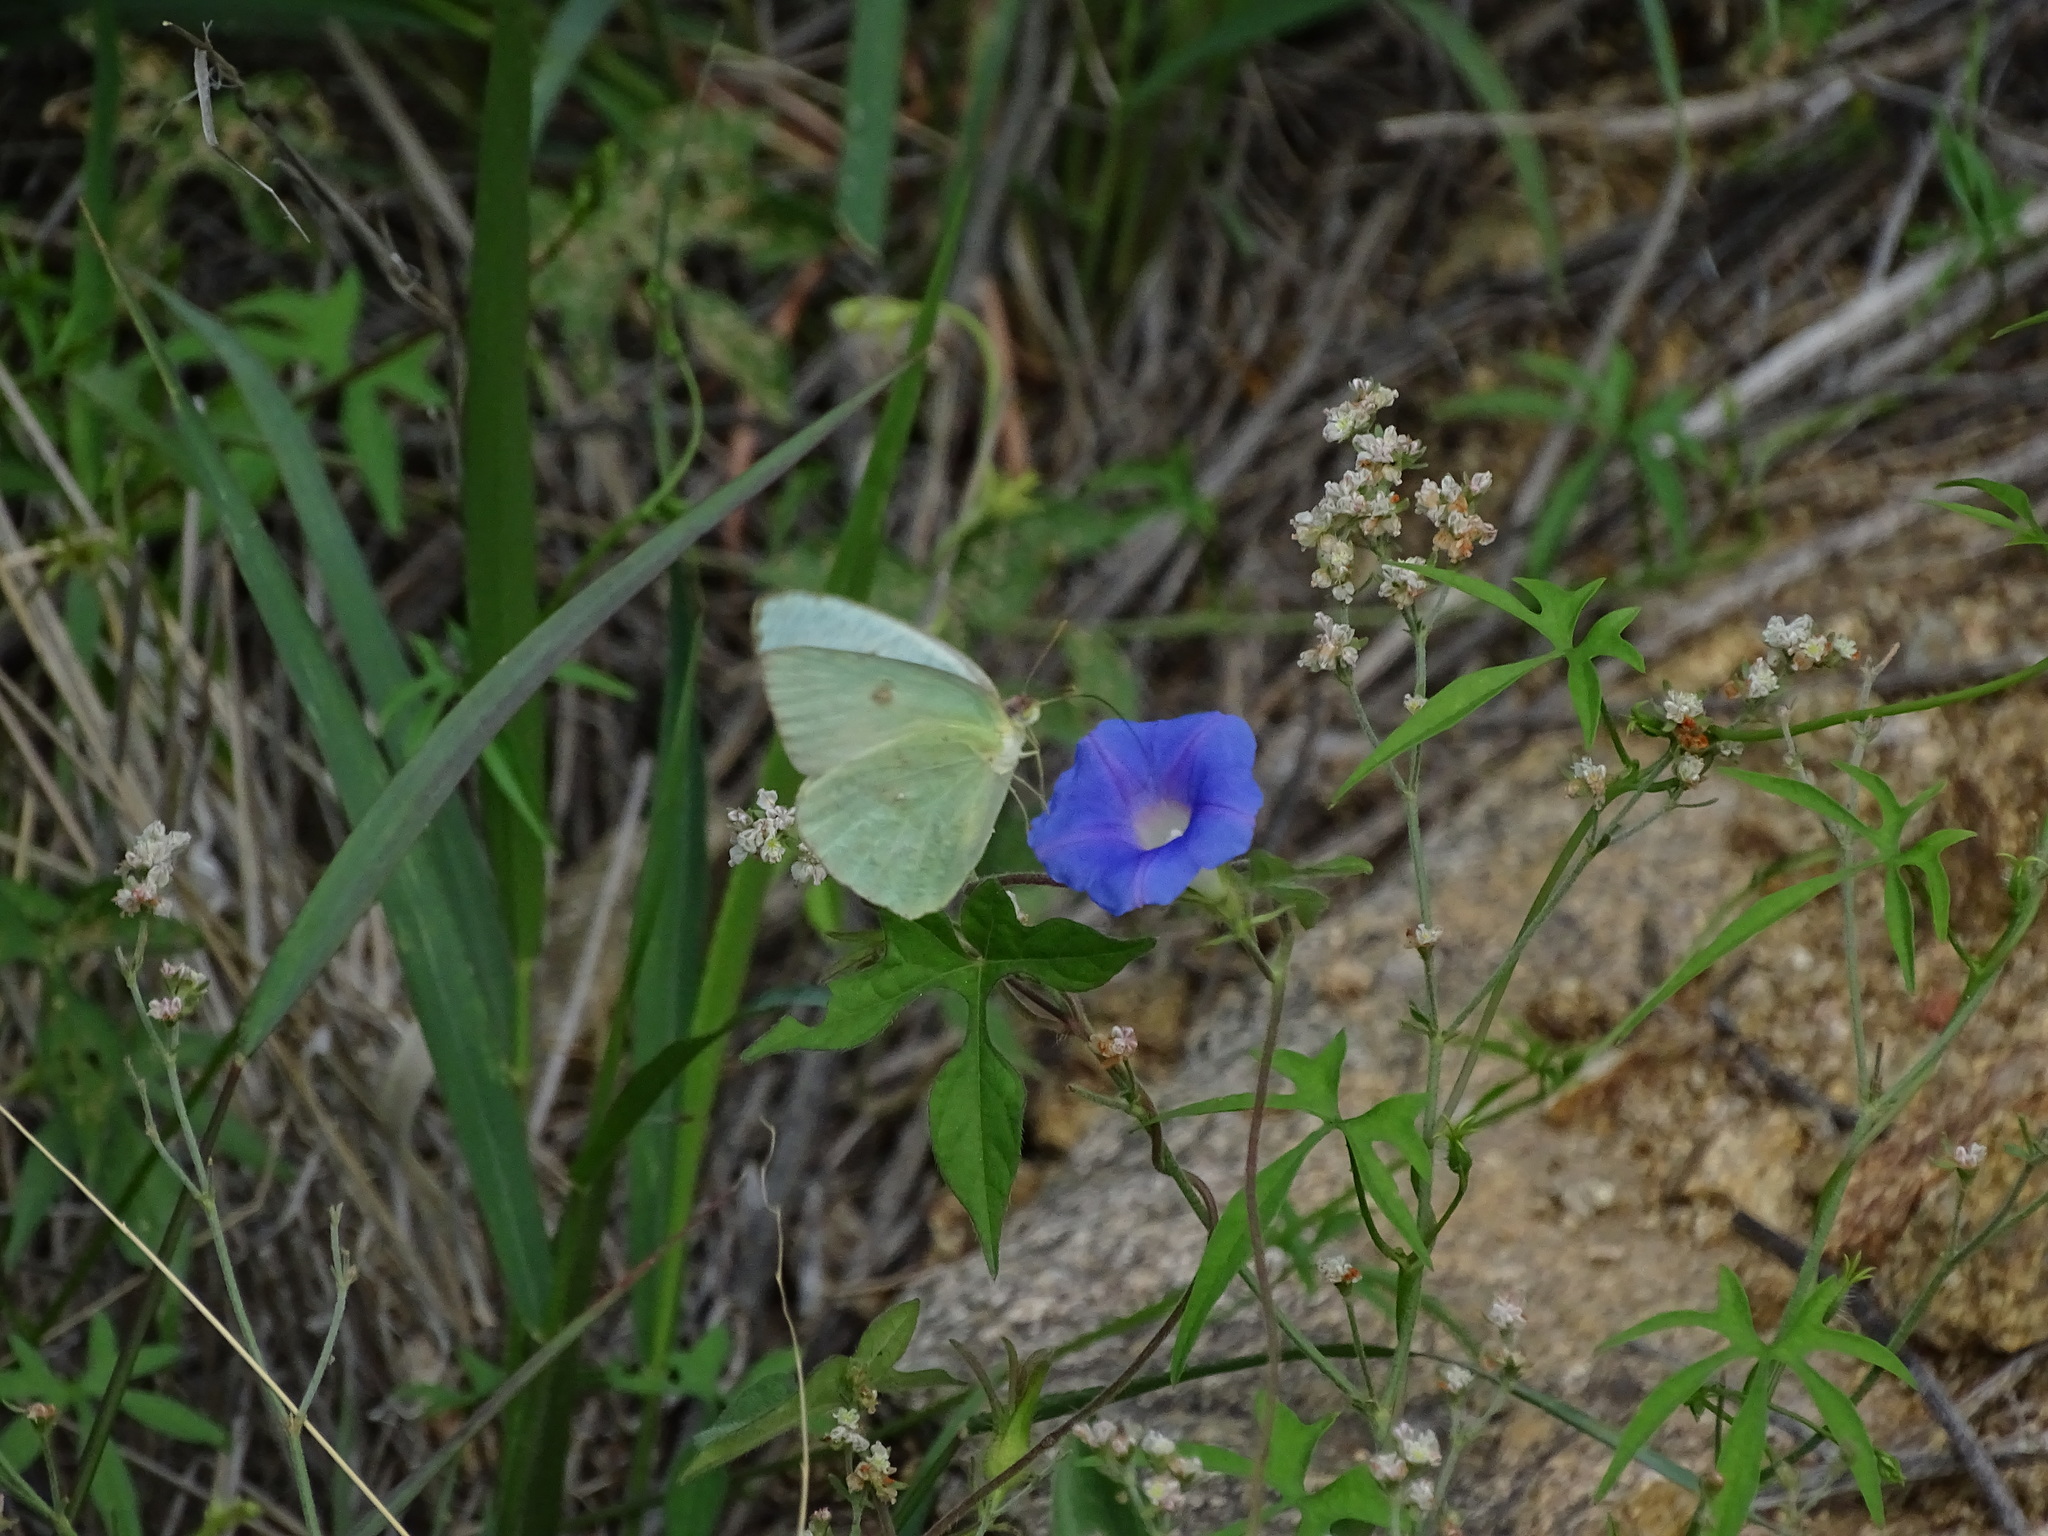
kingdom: Animalia
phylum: Arthropoda
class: Insecta
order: Lepidoptera
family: Pieridae
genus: Phoebis
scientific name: Phoebis sennae
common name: Cloudless sulphur
